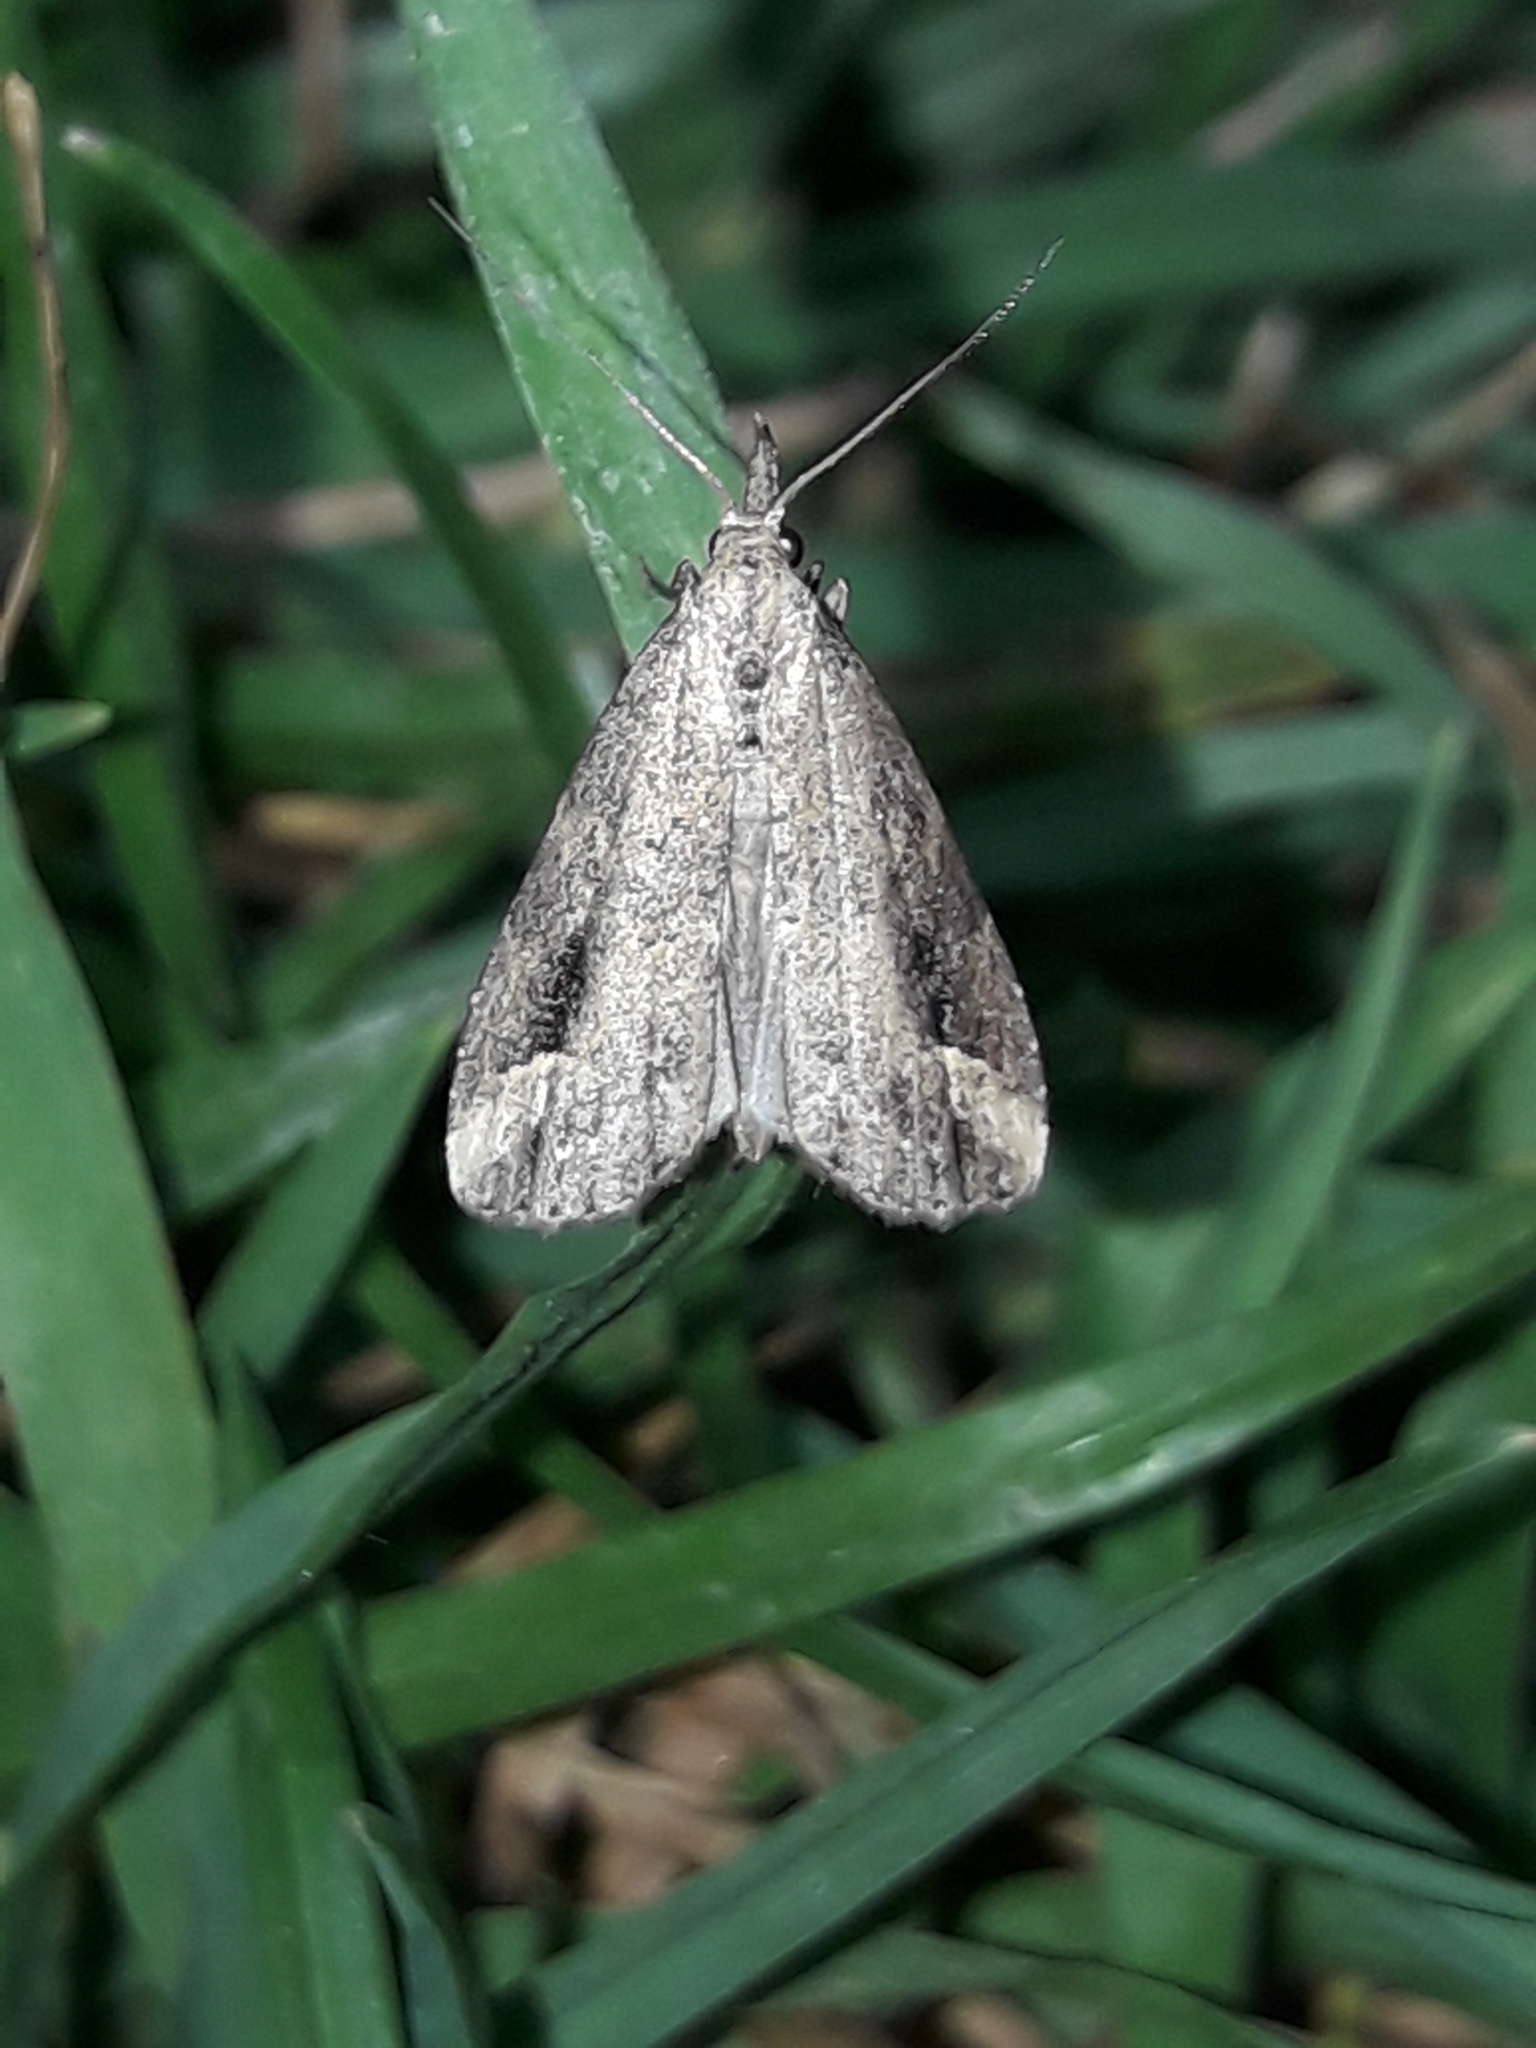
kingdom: Animalia
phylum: Arthropoda
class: Insecta
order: Lepidoptera
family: Erebidae
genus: Schrankia
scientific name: Schrankia costaestrigalis
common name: Pinion-streaked snout
